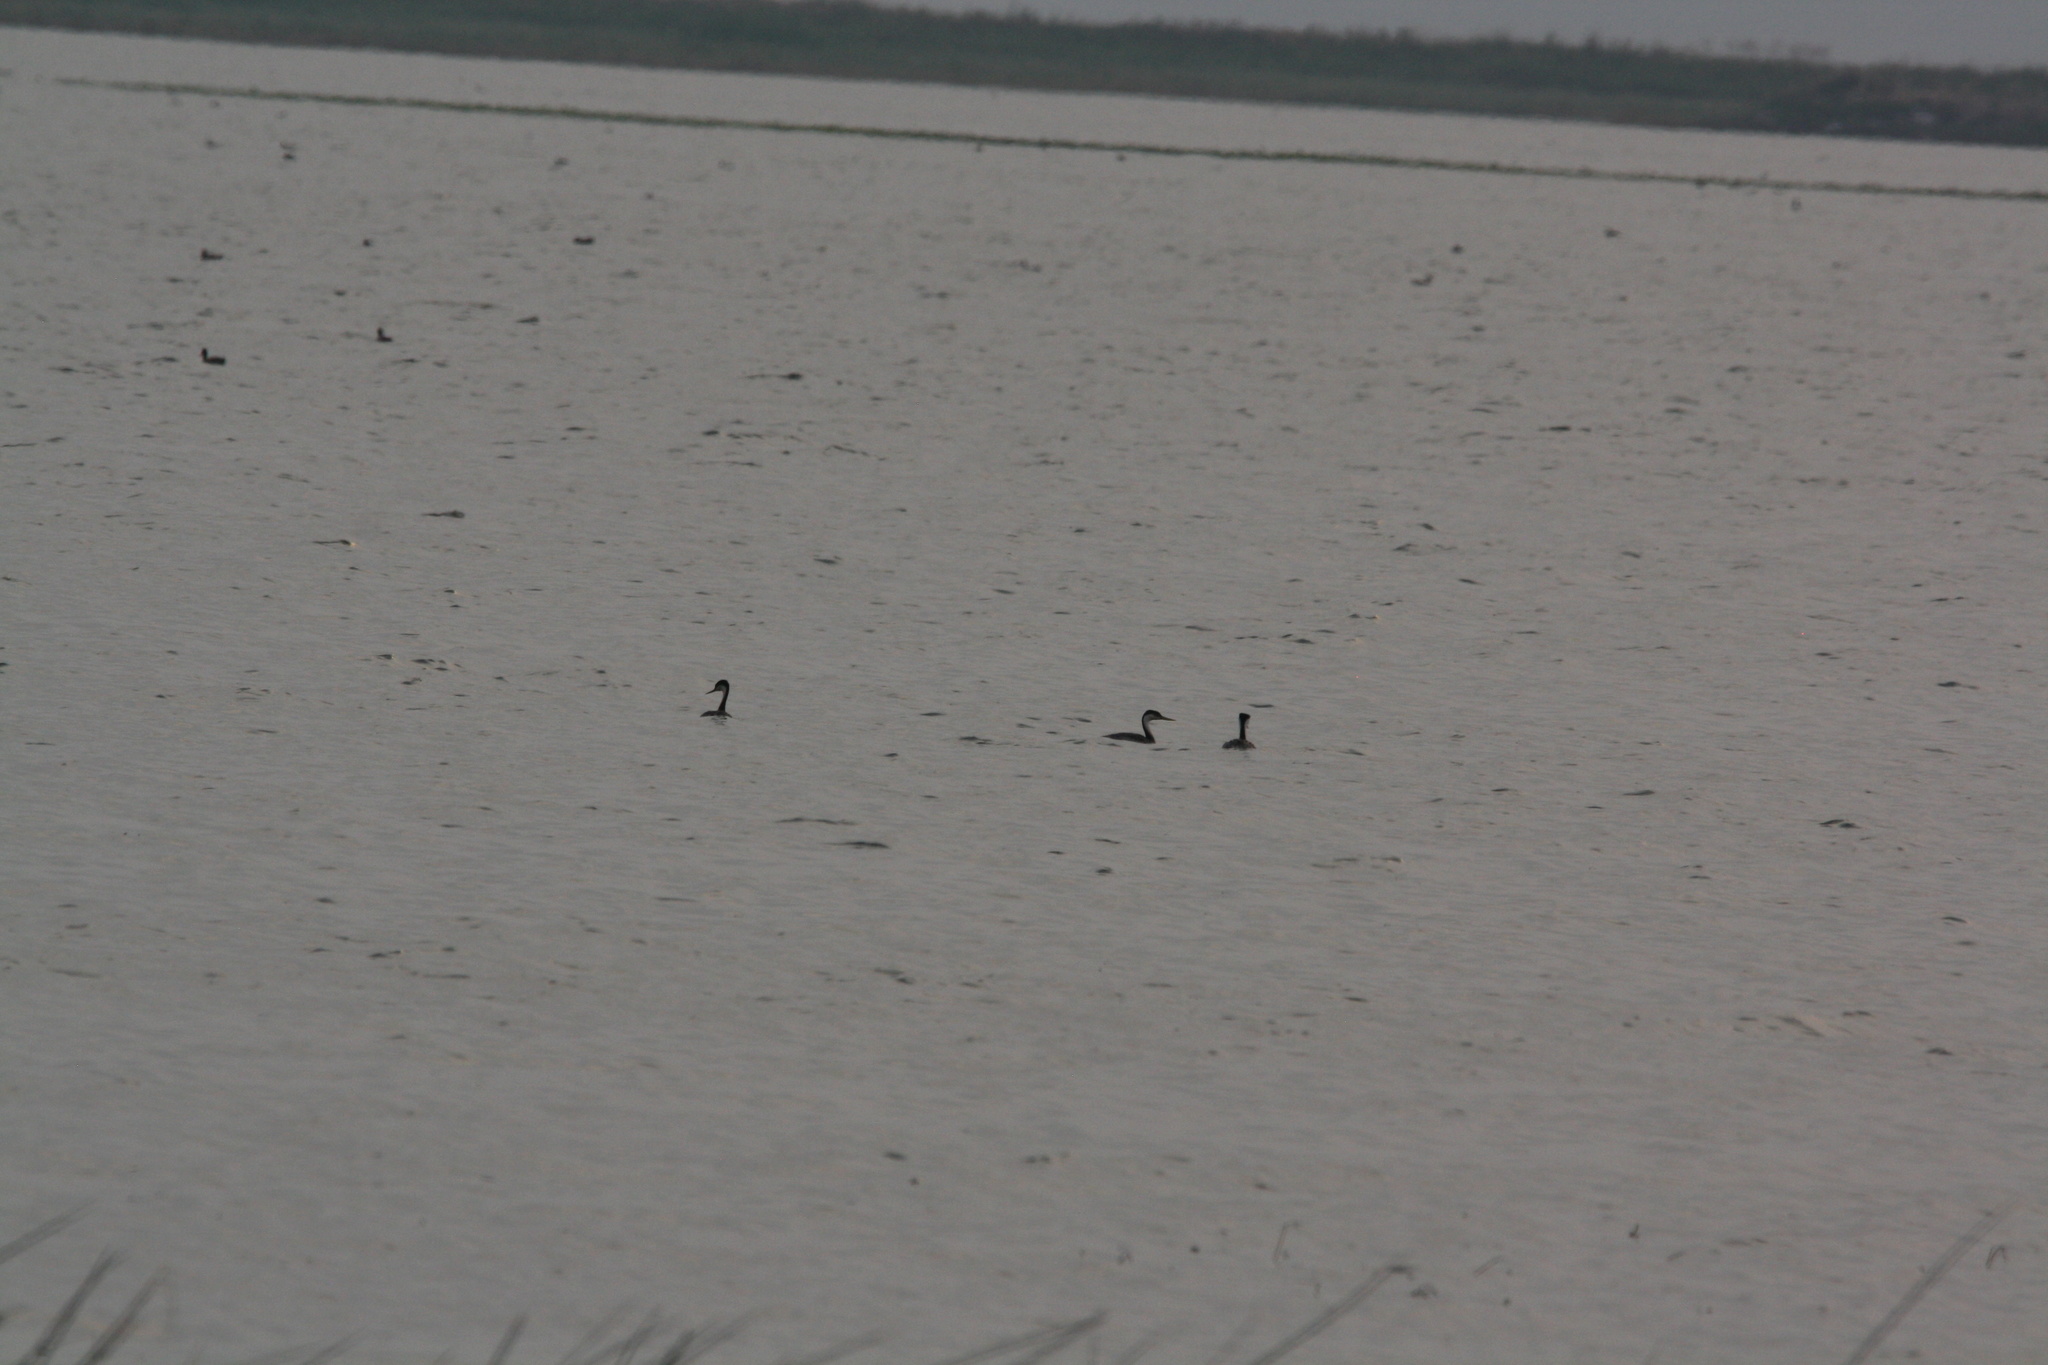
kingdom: Animalia
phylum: Chordata
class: Aves
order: Podicipediformes
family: Podicipedidae
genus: Aechmophorus
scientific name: Aechmophorus occidentalis
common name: Western grebe
